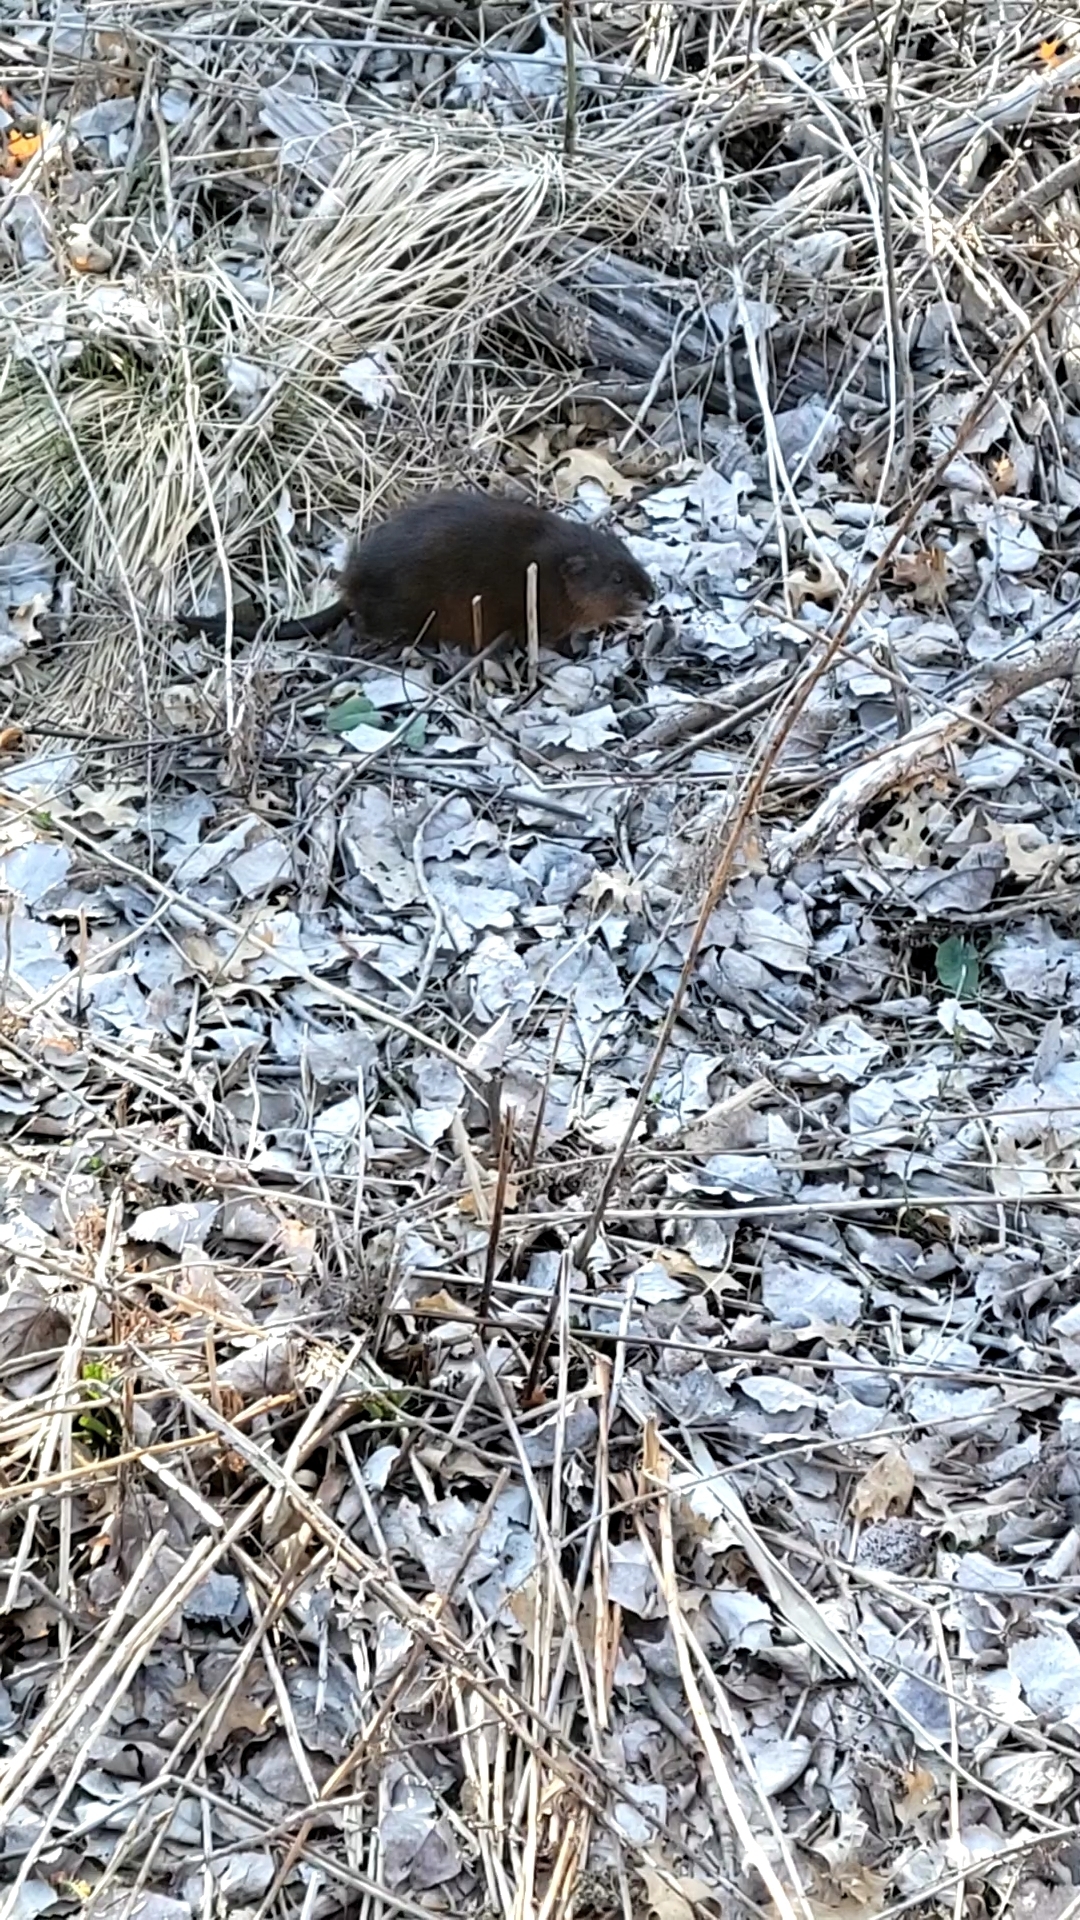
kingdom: Animalia
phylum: Chordata
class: Mammalia
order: Rodentia
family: Cricetidae
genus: Ondatra
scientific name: Ondatra zibethicus
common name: Muskrat
